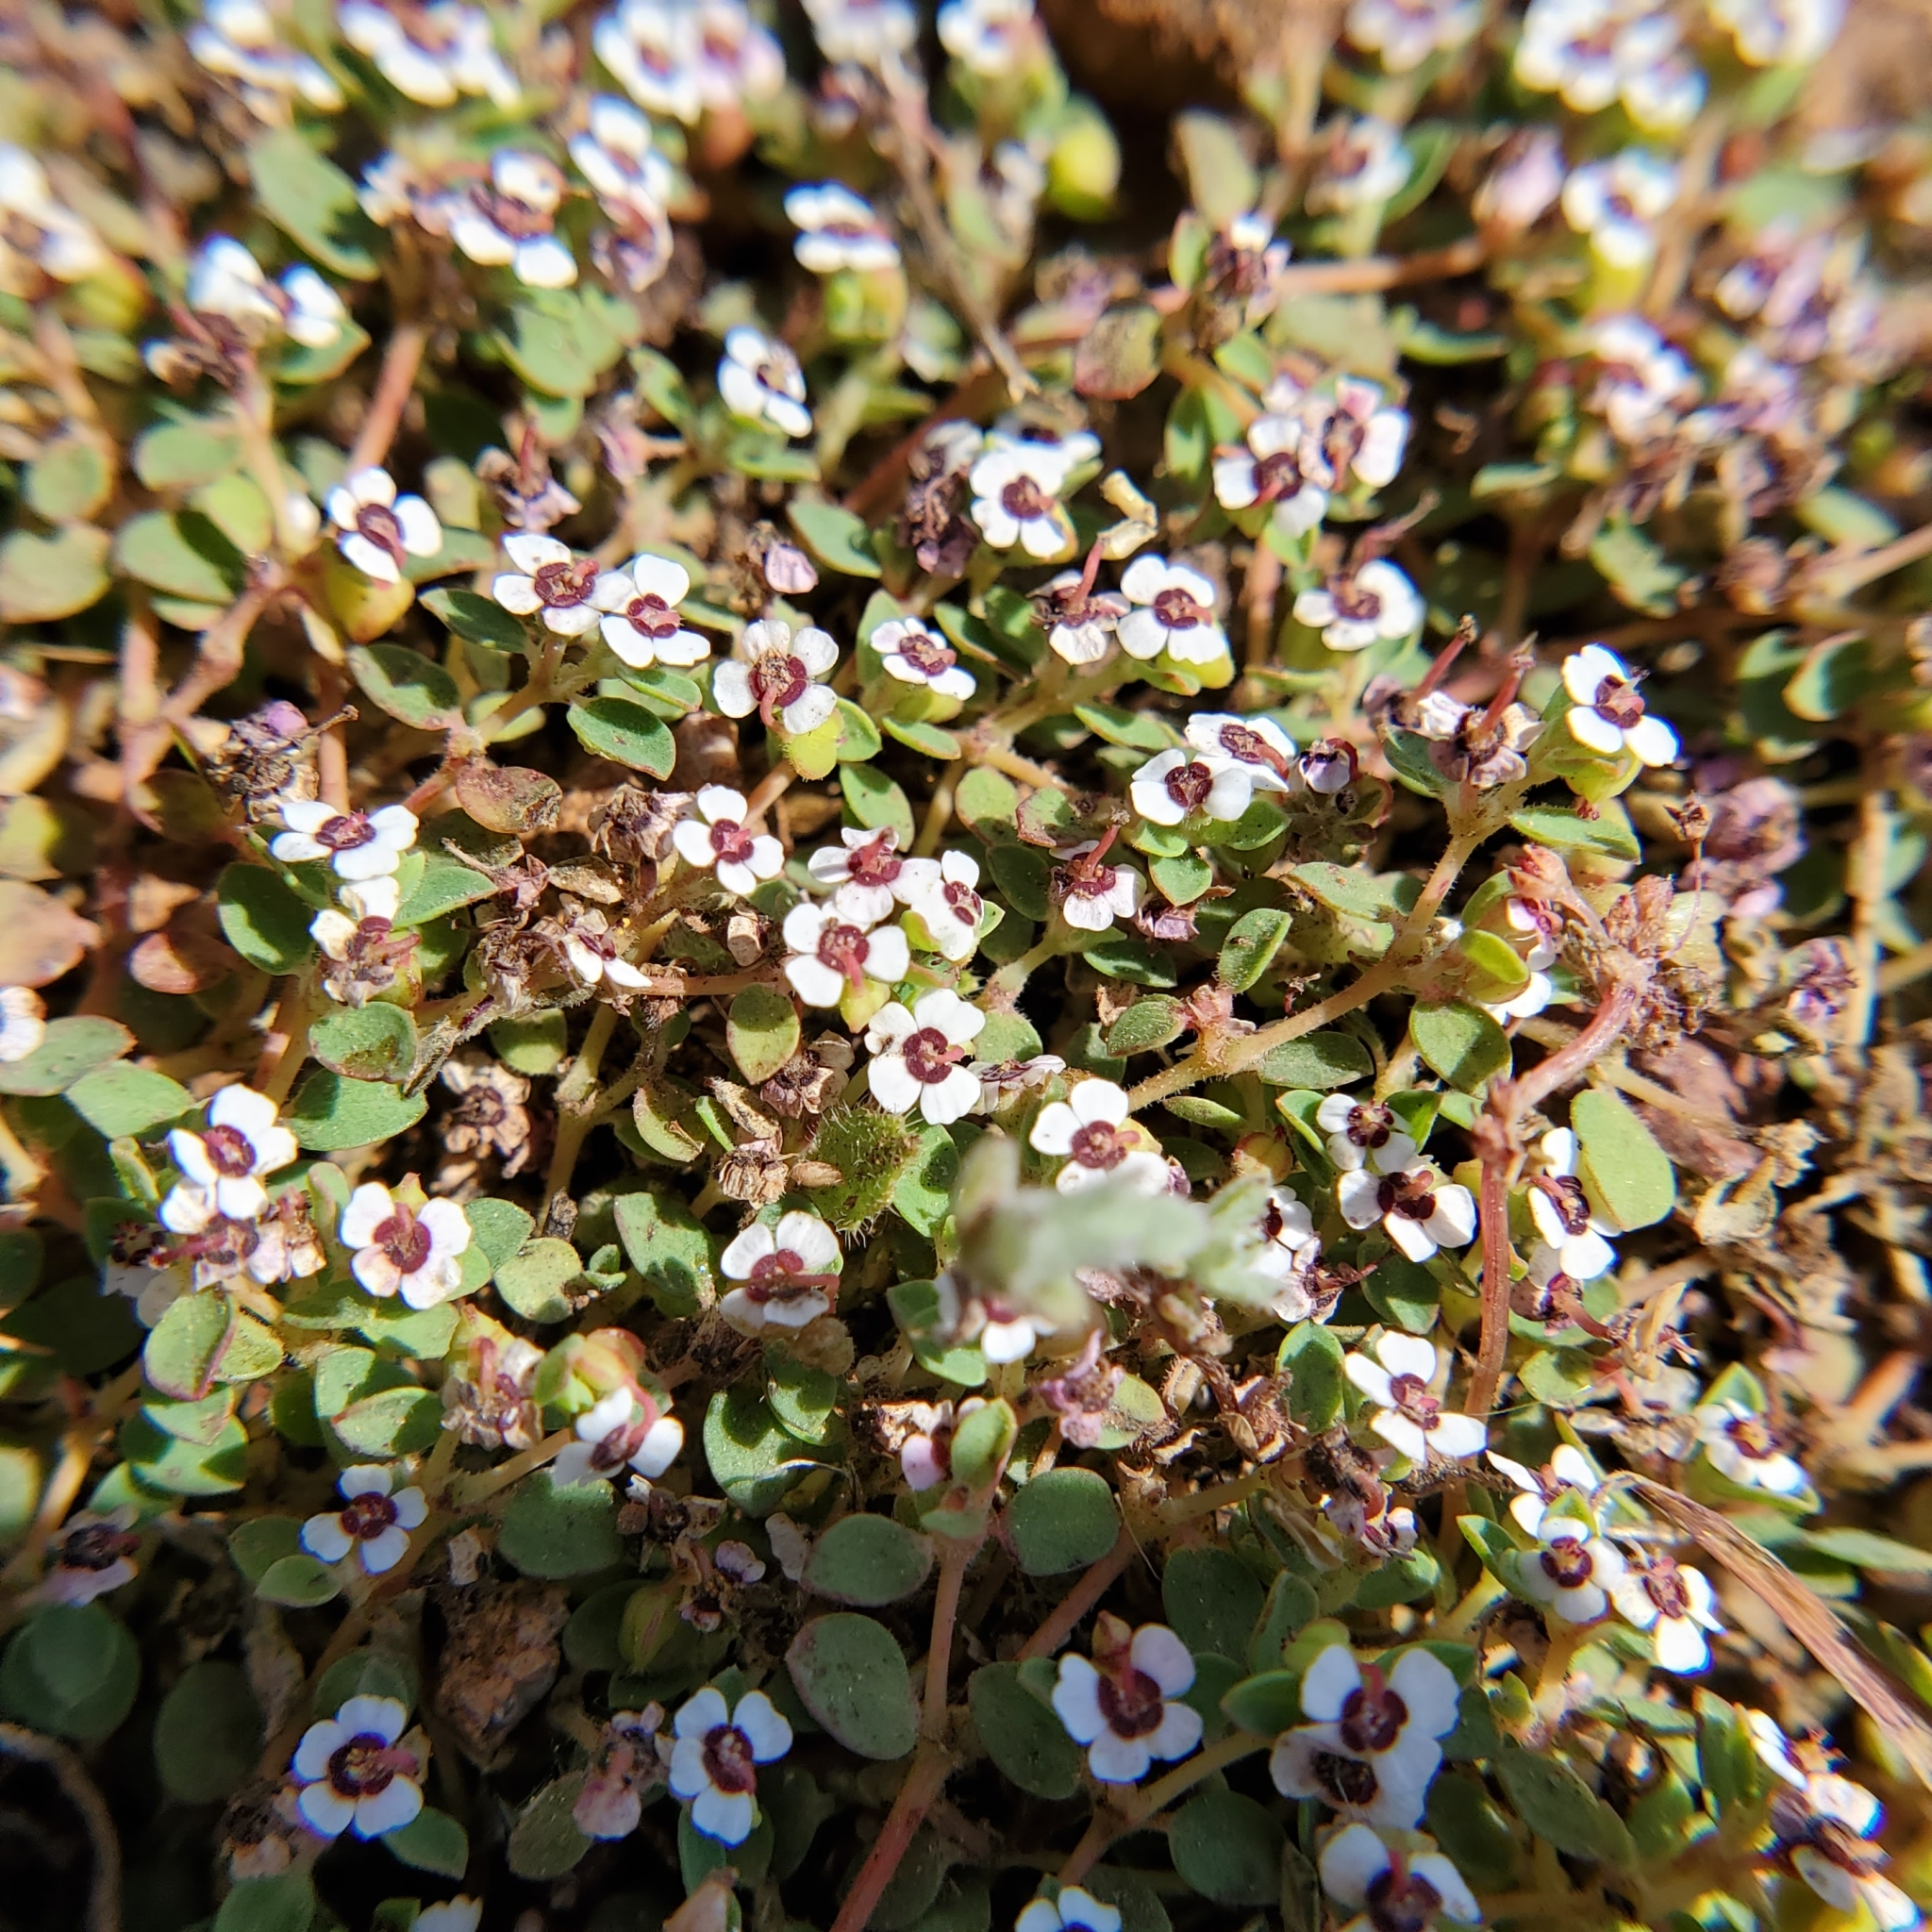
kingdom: Plantae
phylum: Tracheophyta
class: Magnoliopsida
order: Malpighiales
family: Euphorbiaceae
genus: Euphorbia
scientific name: Euphorbia polycarpa
